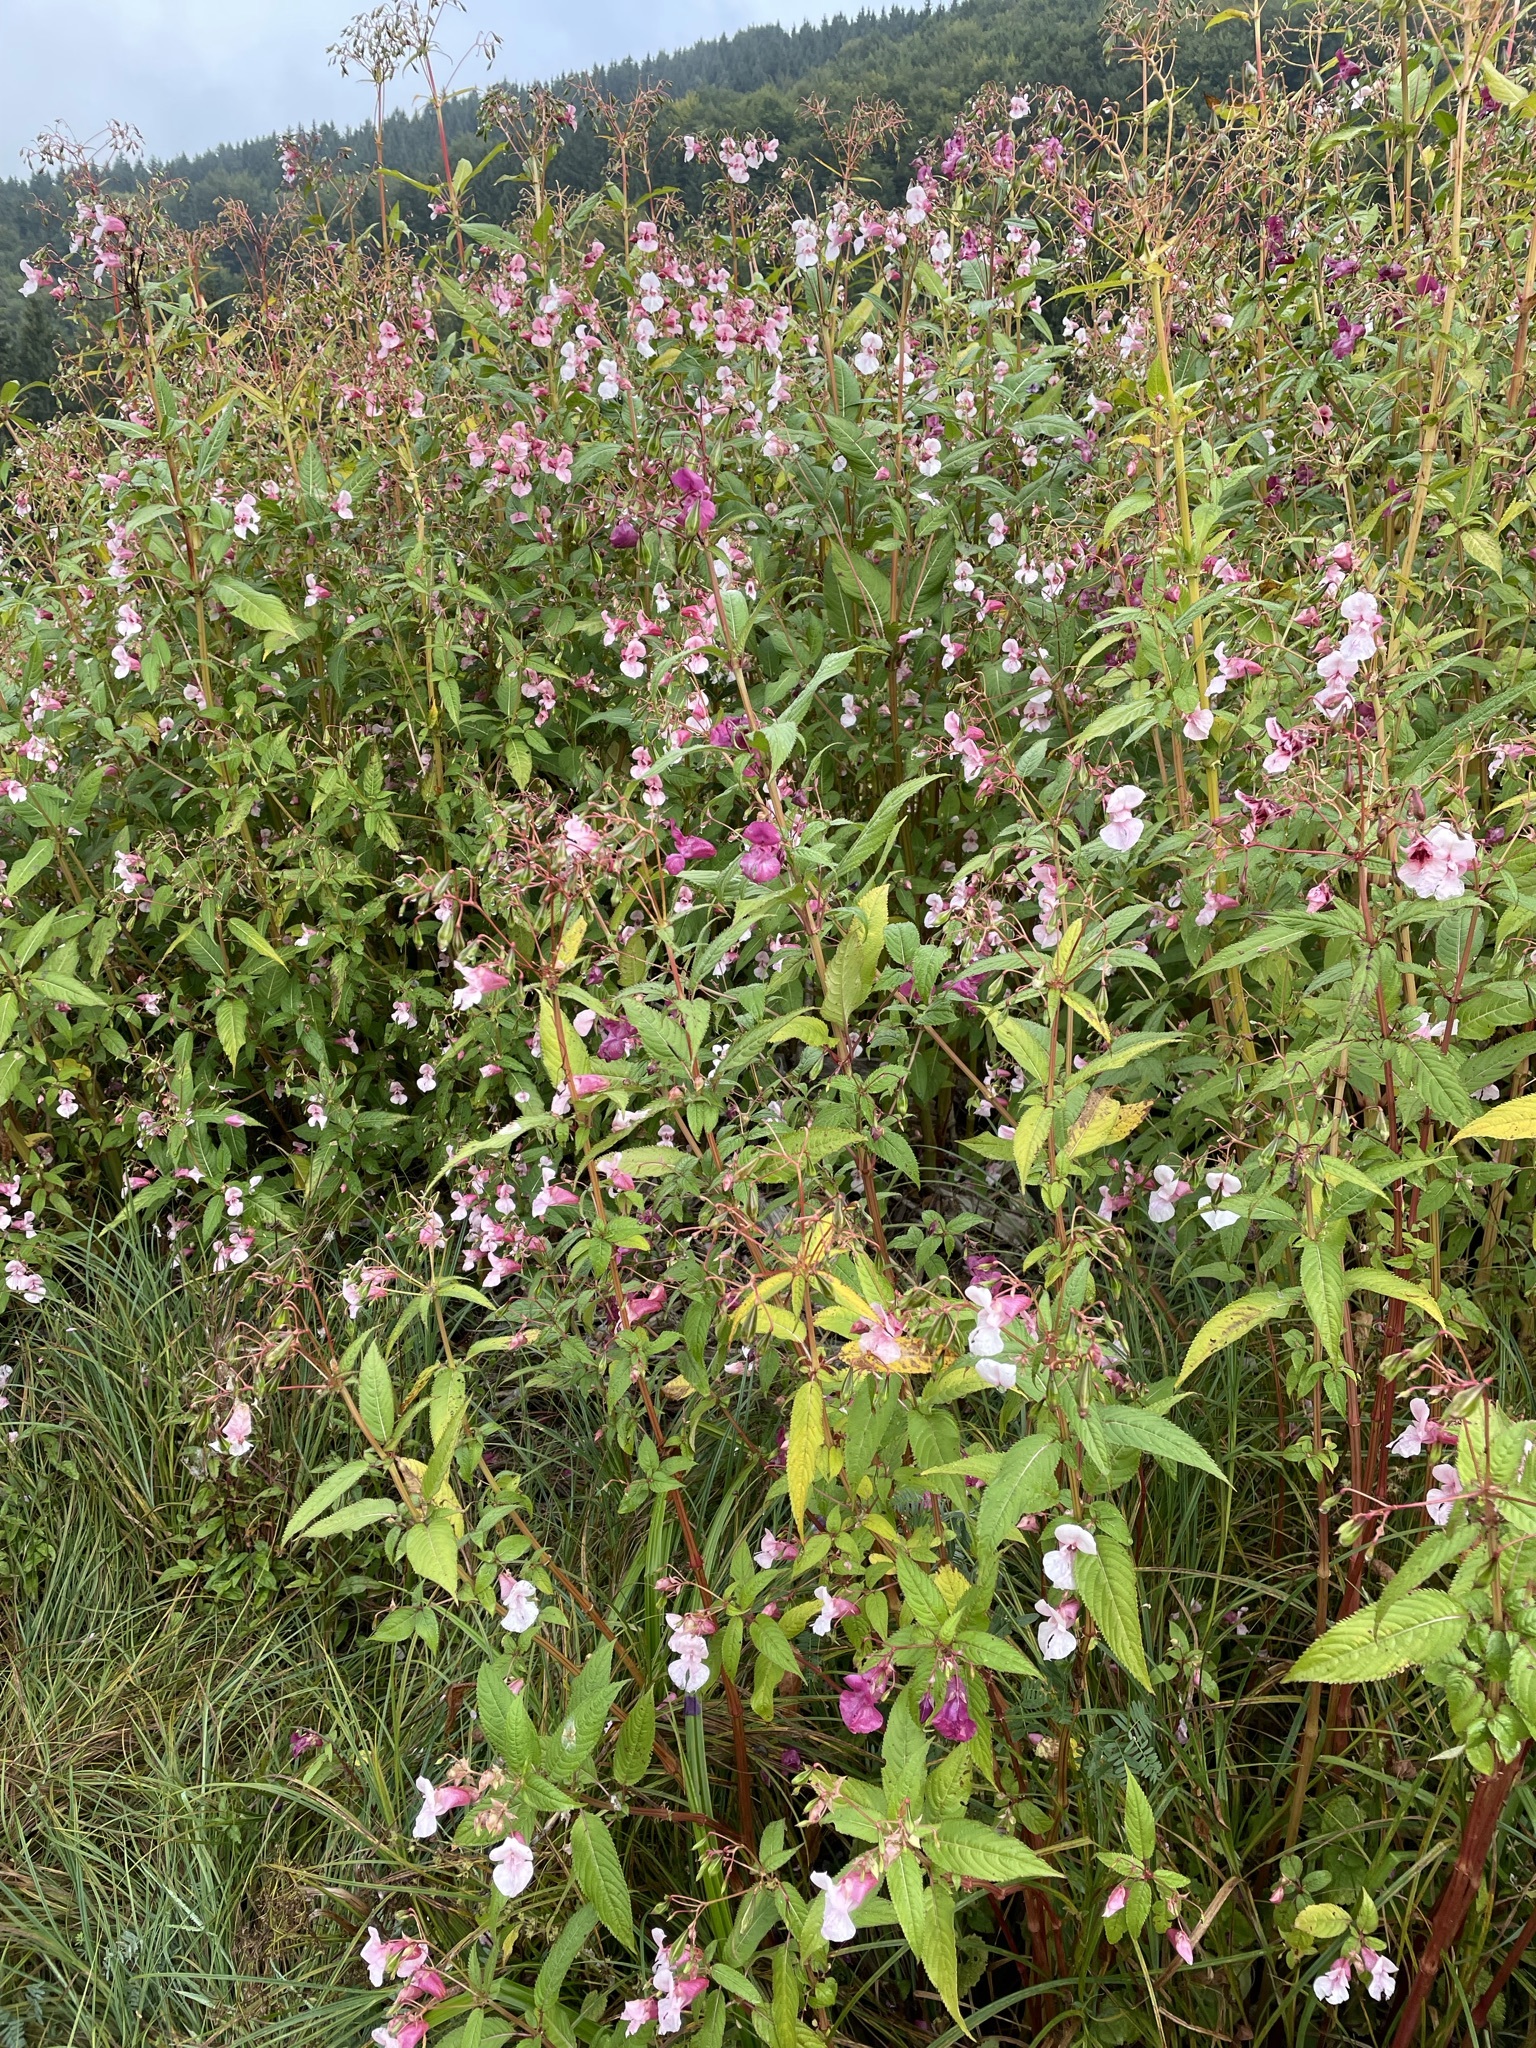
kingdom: Plantae
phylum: Tracheophyta
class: Magnoliopsida
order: Ericales
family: Balsaminaceae
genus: Impatiens
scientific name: Impatiens glandulifera
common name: Himalayan balsam
